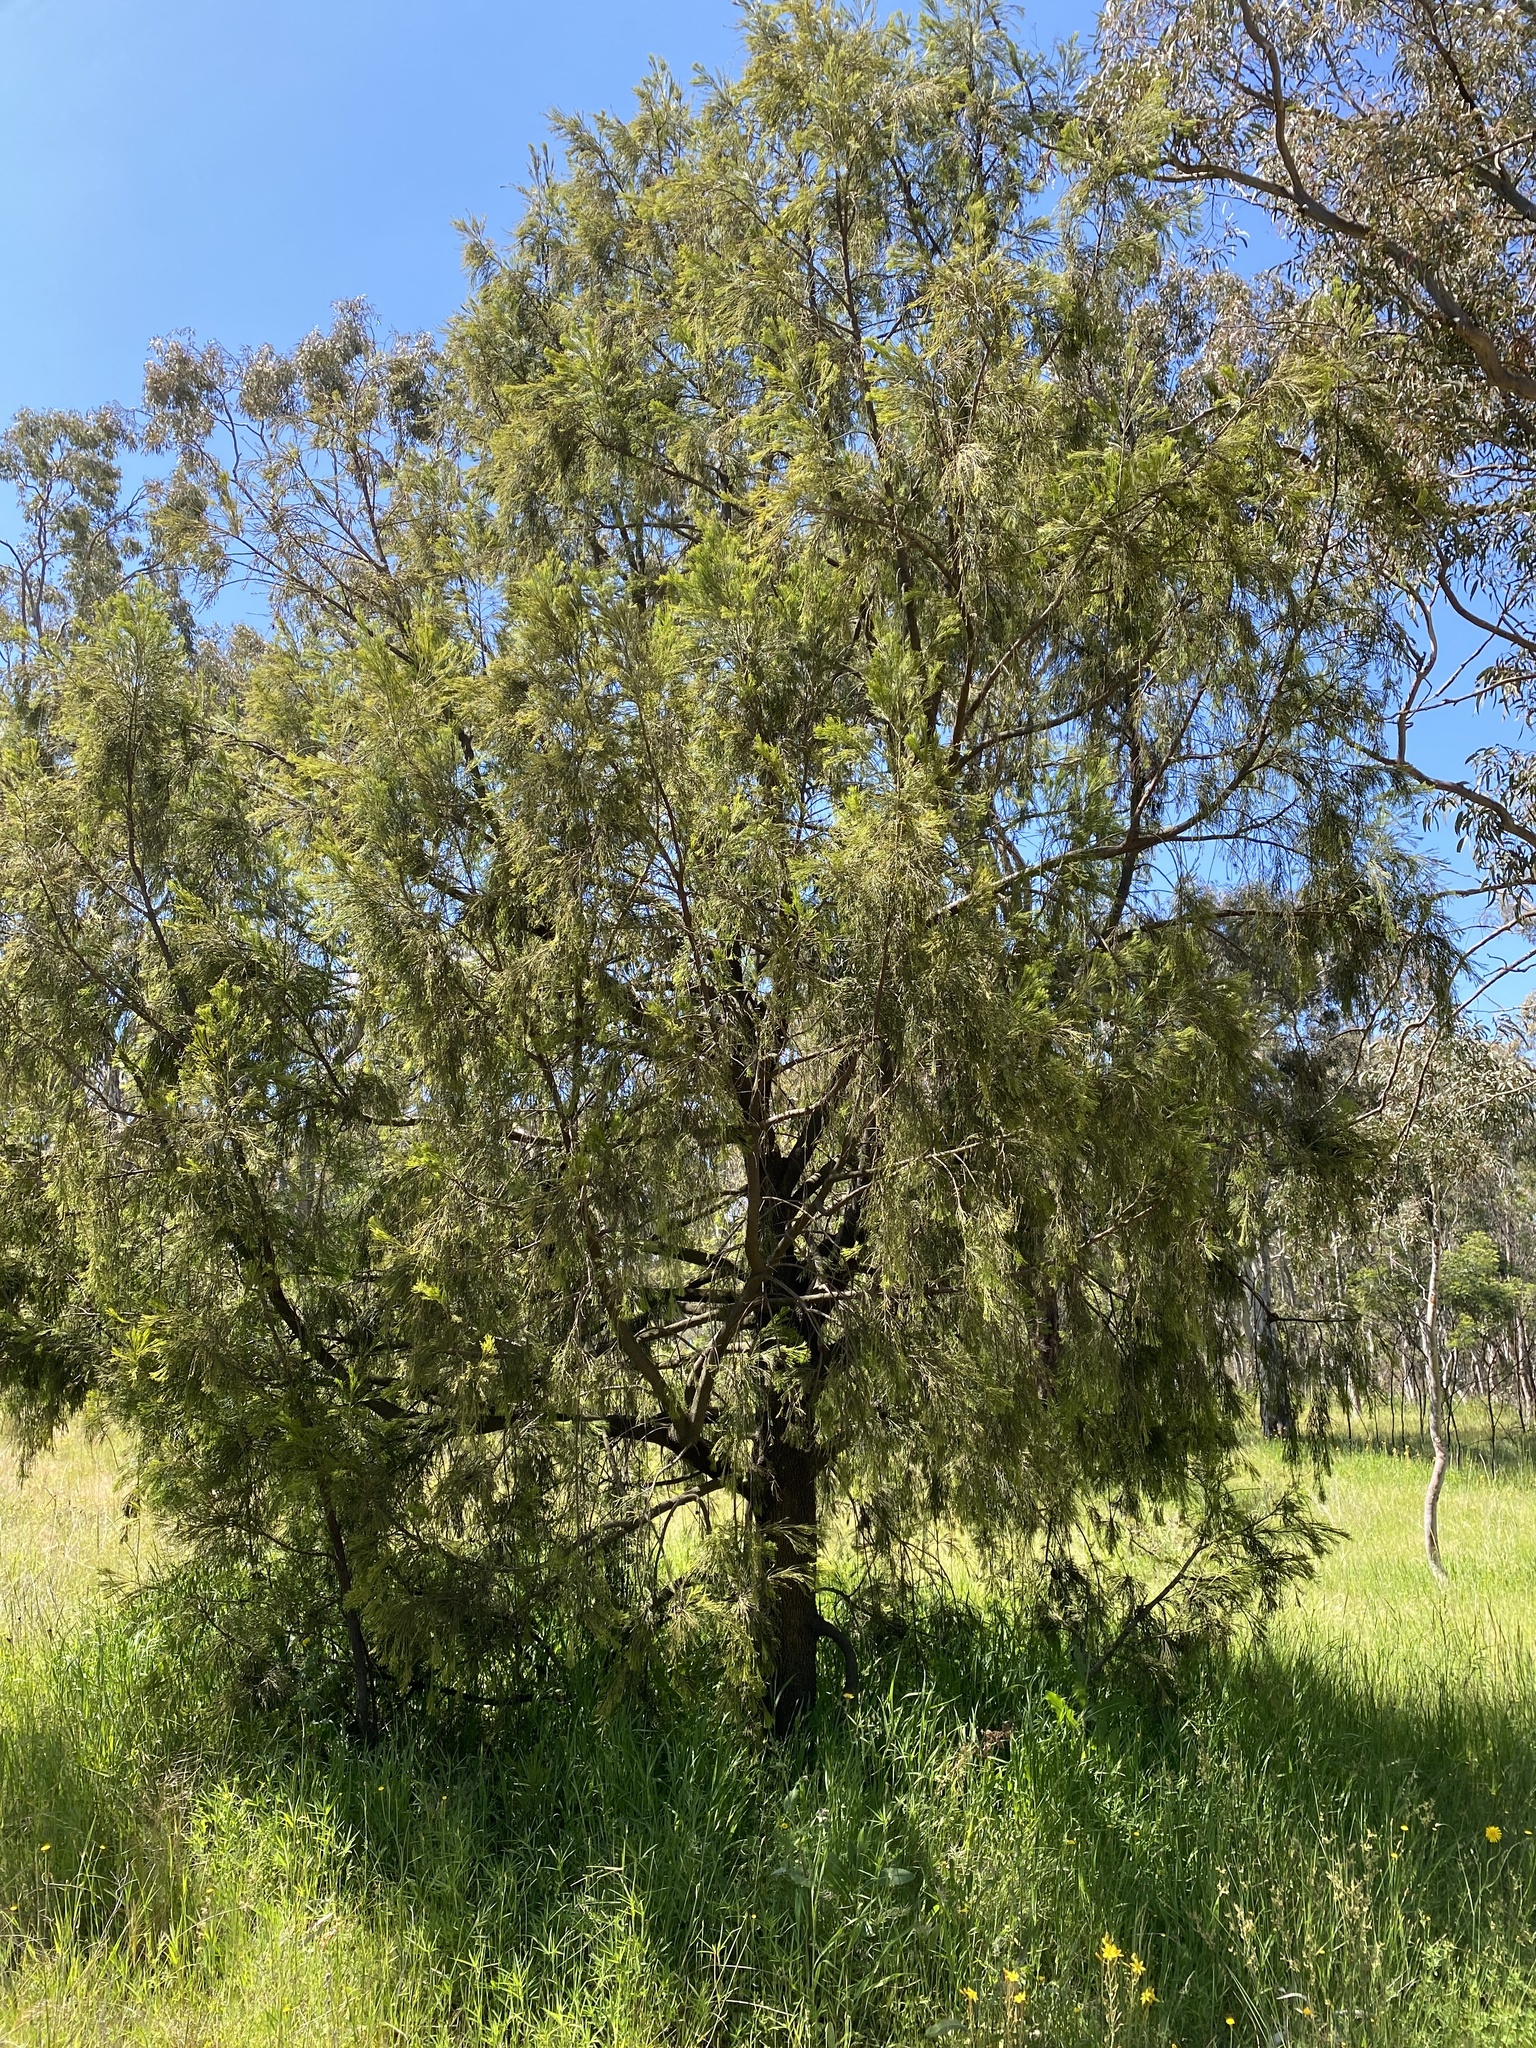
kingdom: Plantae
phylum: Tracheophyta
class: Magnoliopsida
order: Santalales
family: Santalaceae
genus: Exocarpos
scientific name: Exocarpos cupressiformis
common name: Cherry ballart
